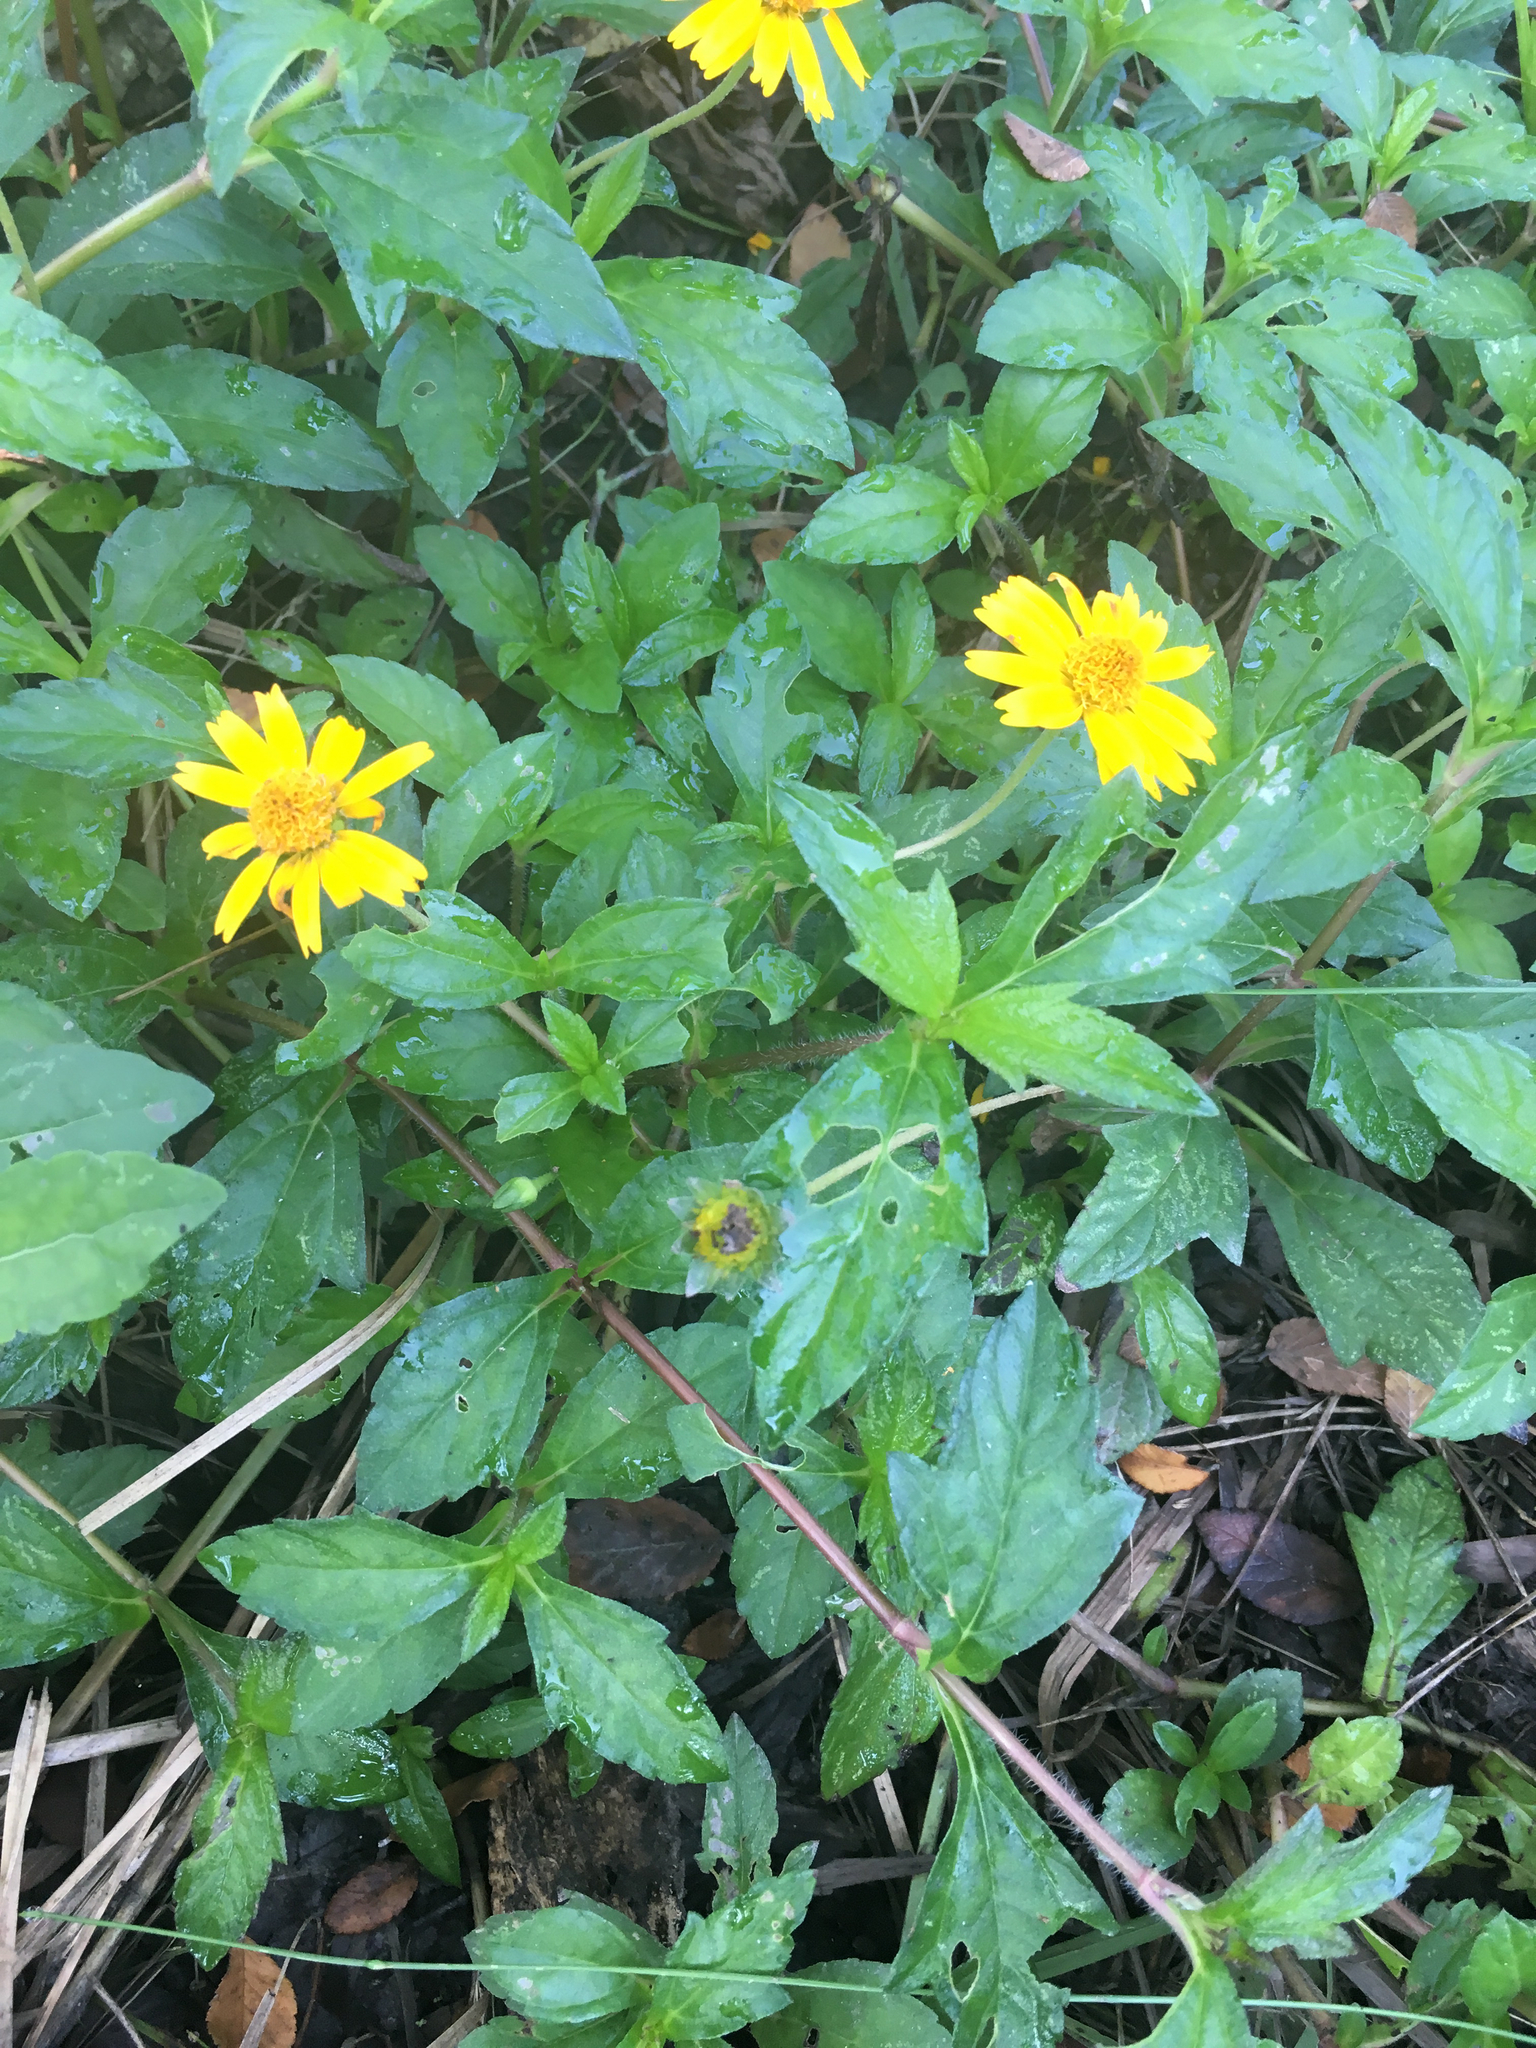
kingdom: Plantae
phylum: Tracheophyta
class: Magnoliopsida
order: Asterales
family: Asteraceae
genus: Sphagneticola
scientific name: Sphagneticola trilobata
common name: Bay biscayne creeping-oxeye
